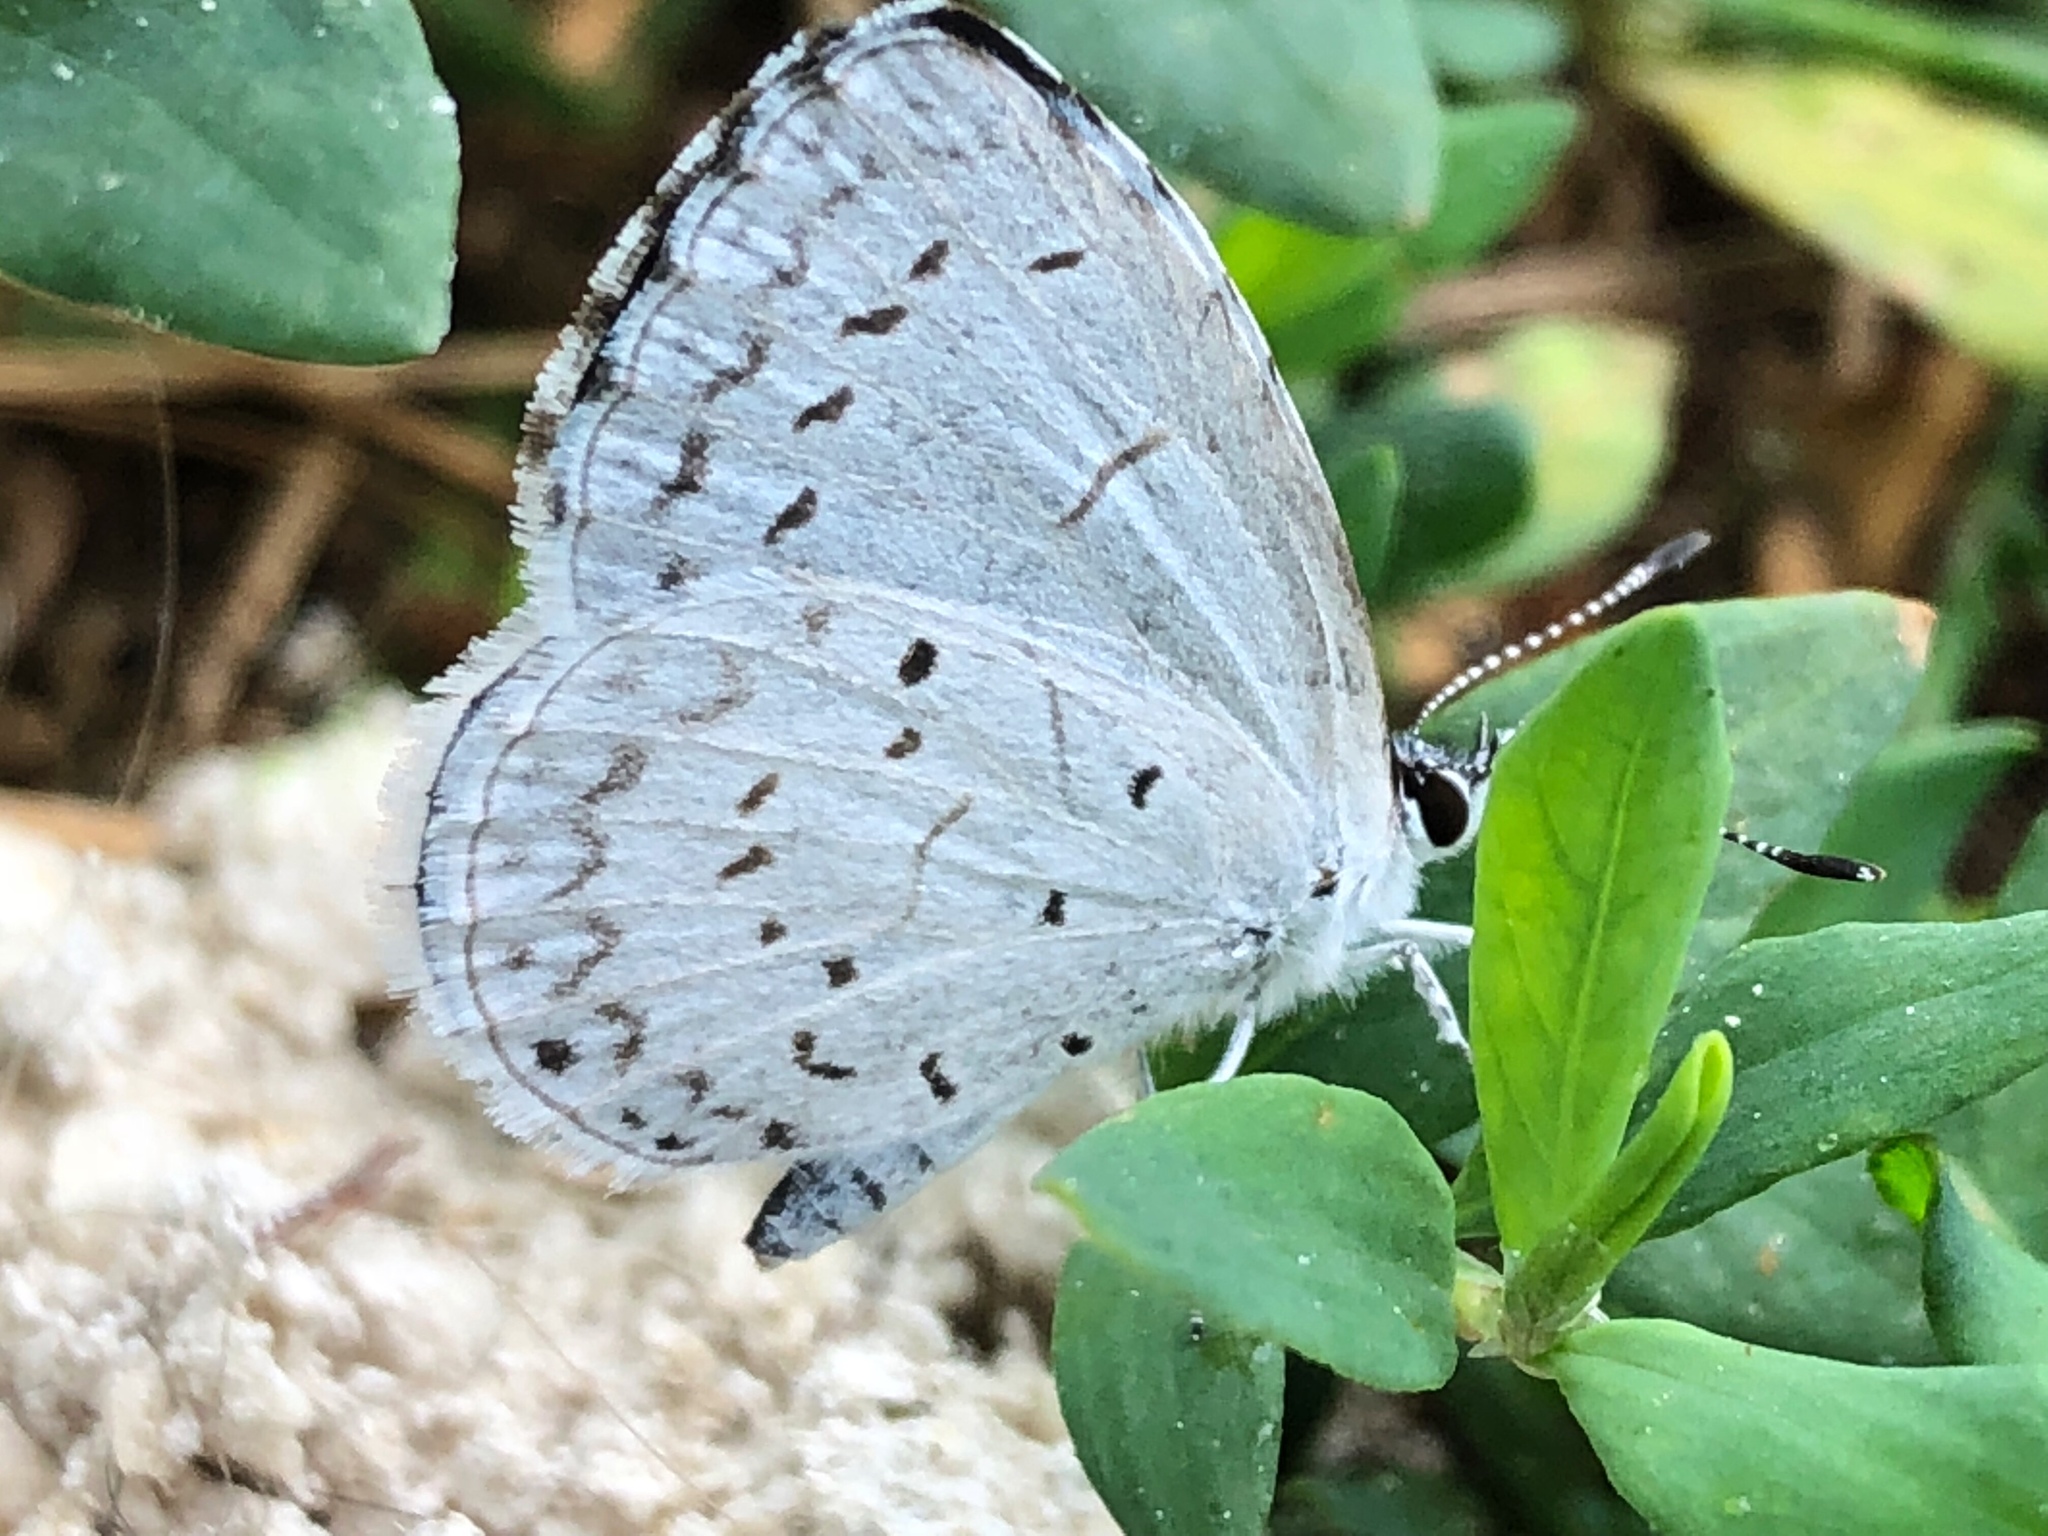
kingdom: Animalia
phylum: Arthropoda
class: Insecta
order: Lepidoptera
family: Lycaenidae
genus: Cyaniris
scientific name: Cyaniris neglecta
